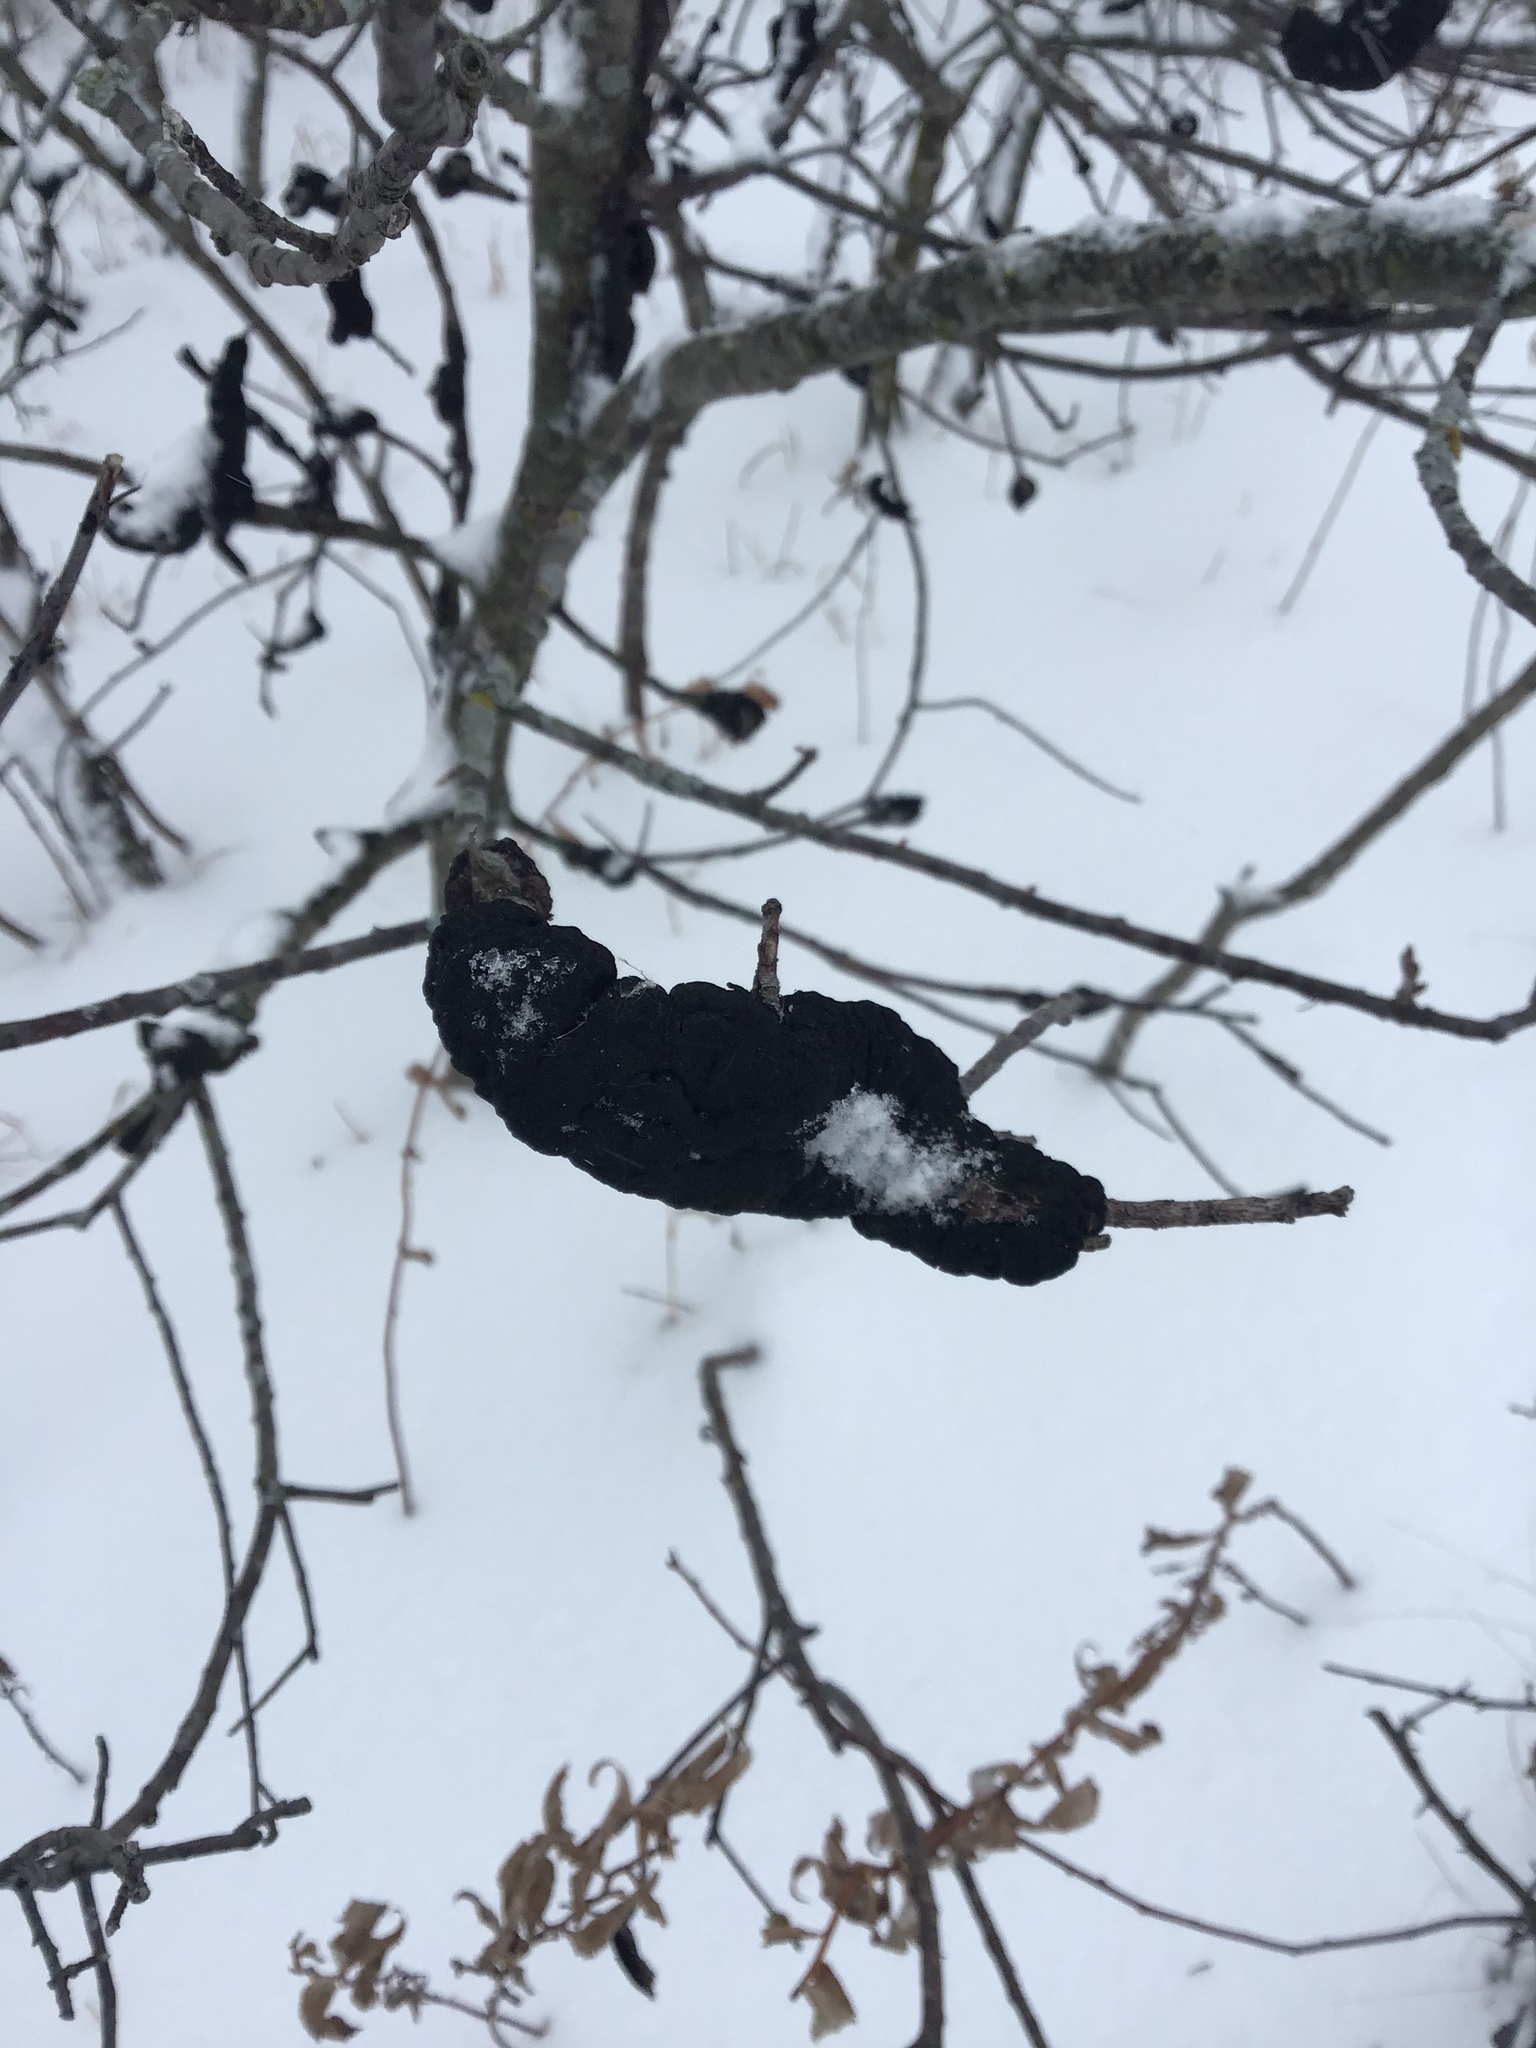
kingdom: Fungi
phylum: Ascomycota
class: Dothideomycetes
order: Venturiales
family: Venturiaceae
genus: Apiosporina
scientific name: Apiosporina morbosa
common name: Black knot
